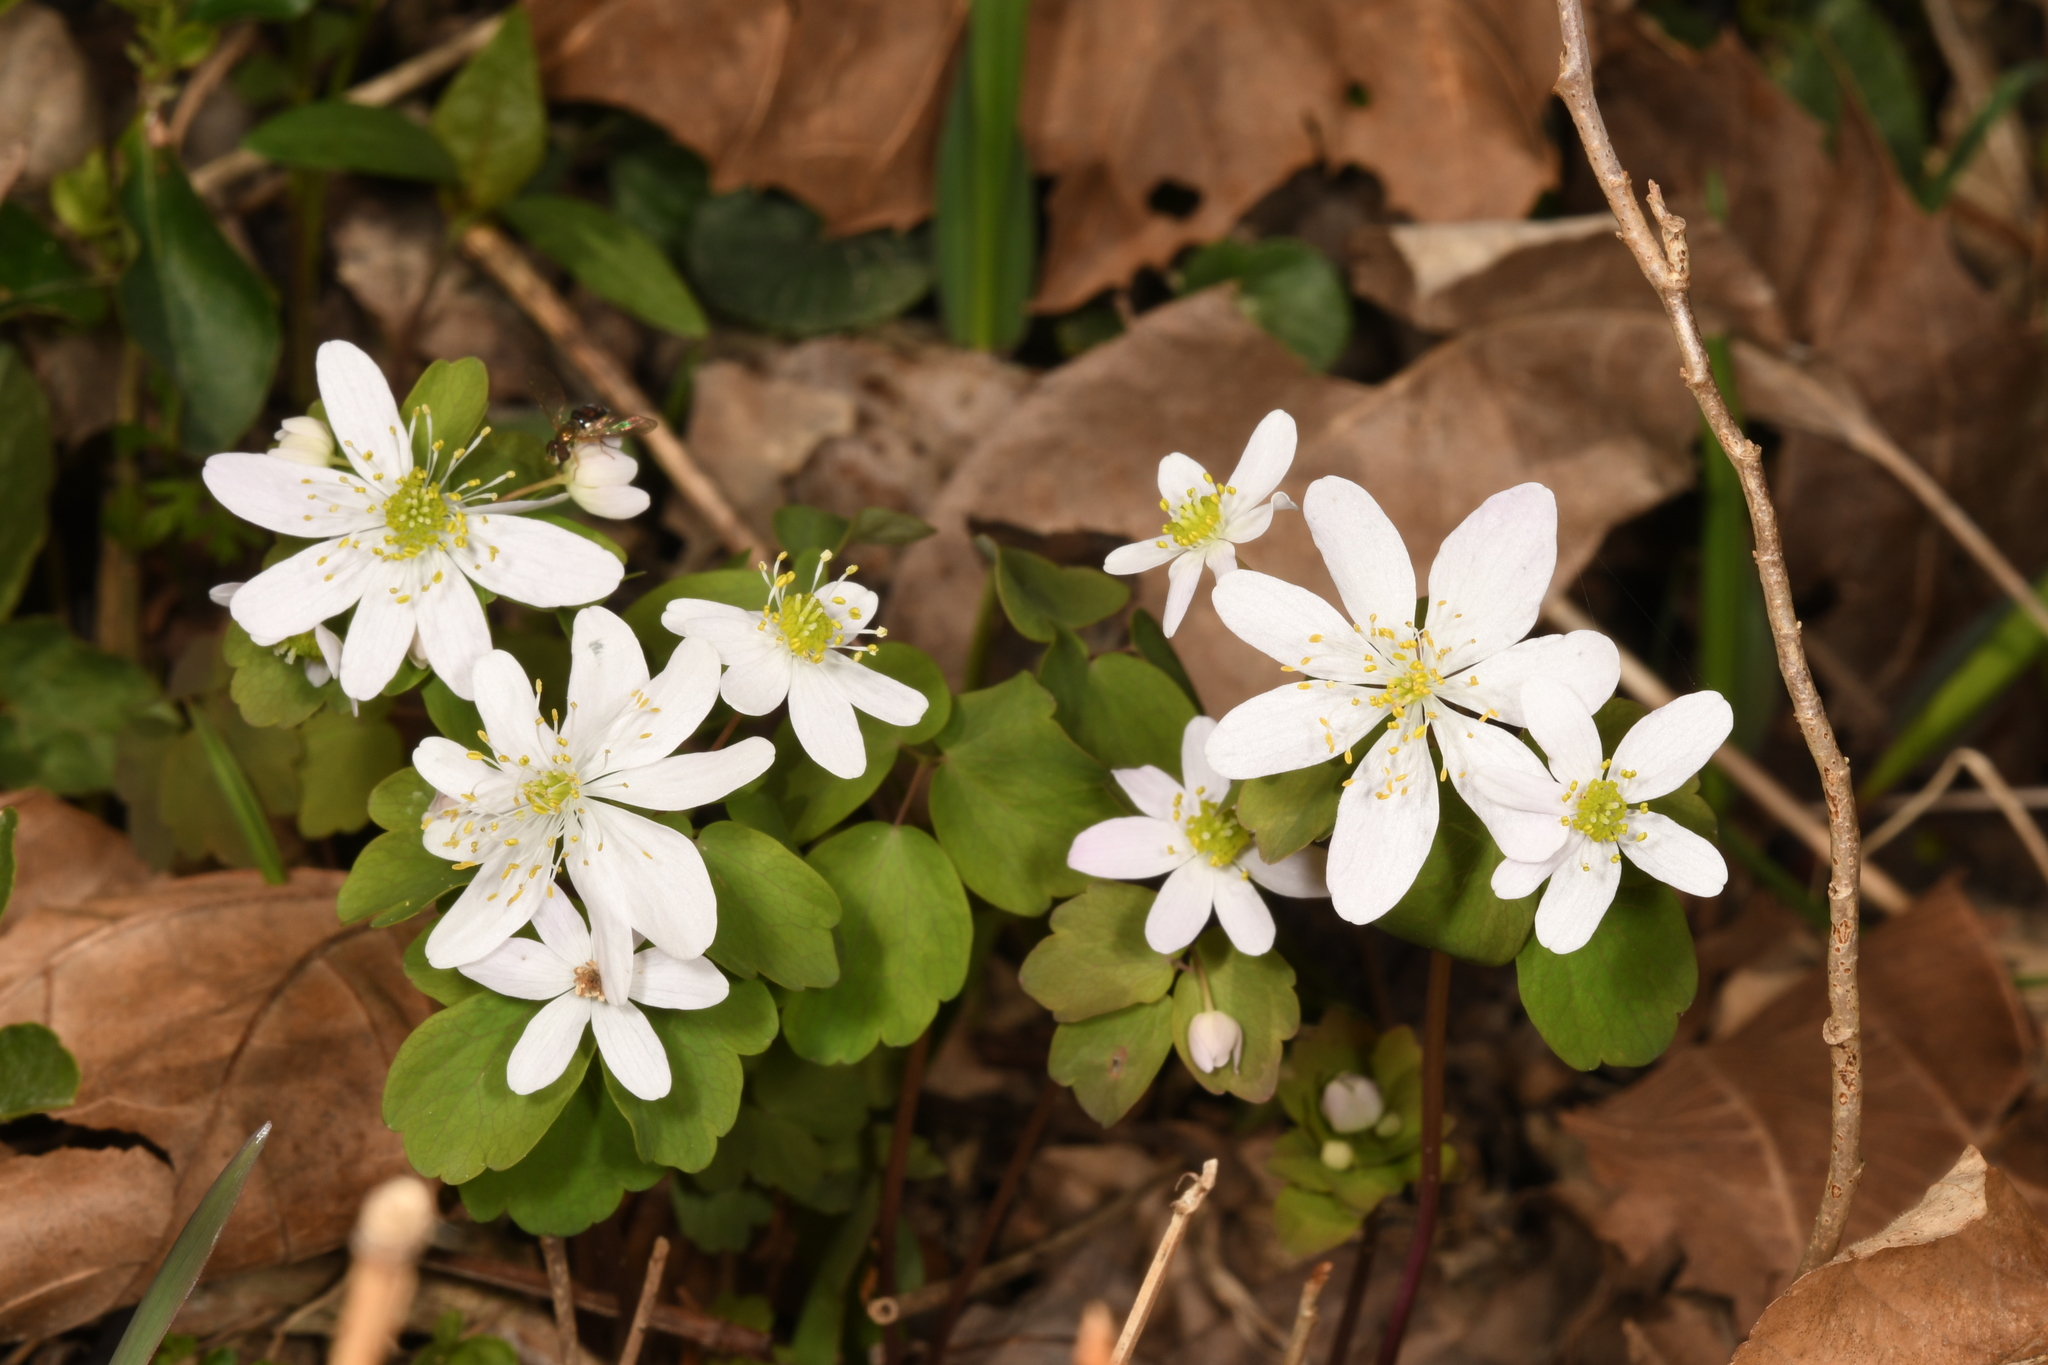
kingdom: Plantae
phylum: Tracheophyta
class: Magnoliopsida
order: Ranunculales
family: Ranunculaceae
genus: Thalictrum
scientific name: Thalictrum thalictroides
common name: Rue-anemone
